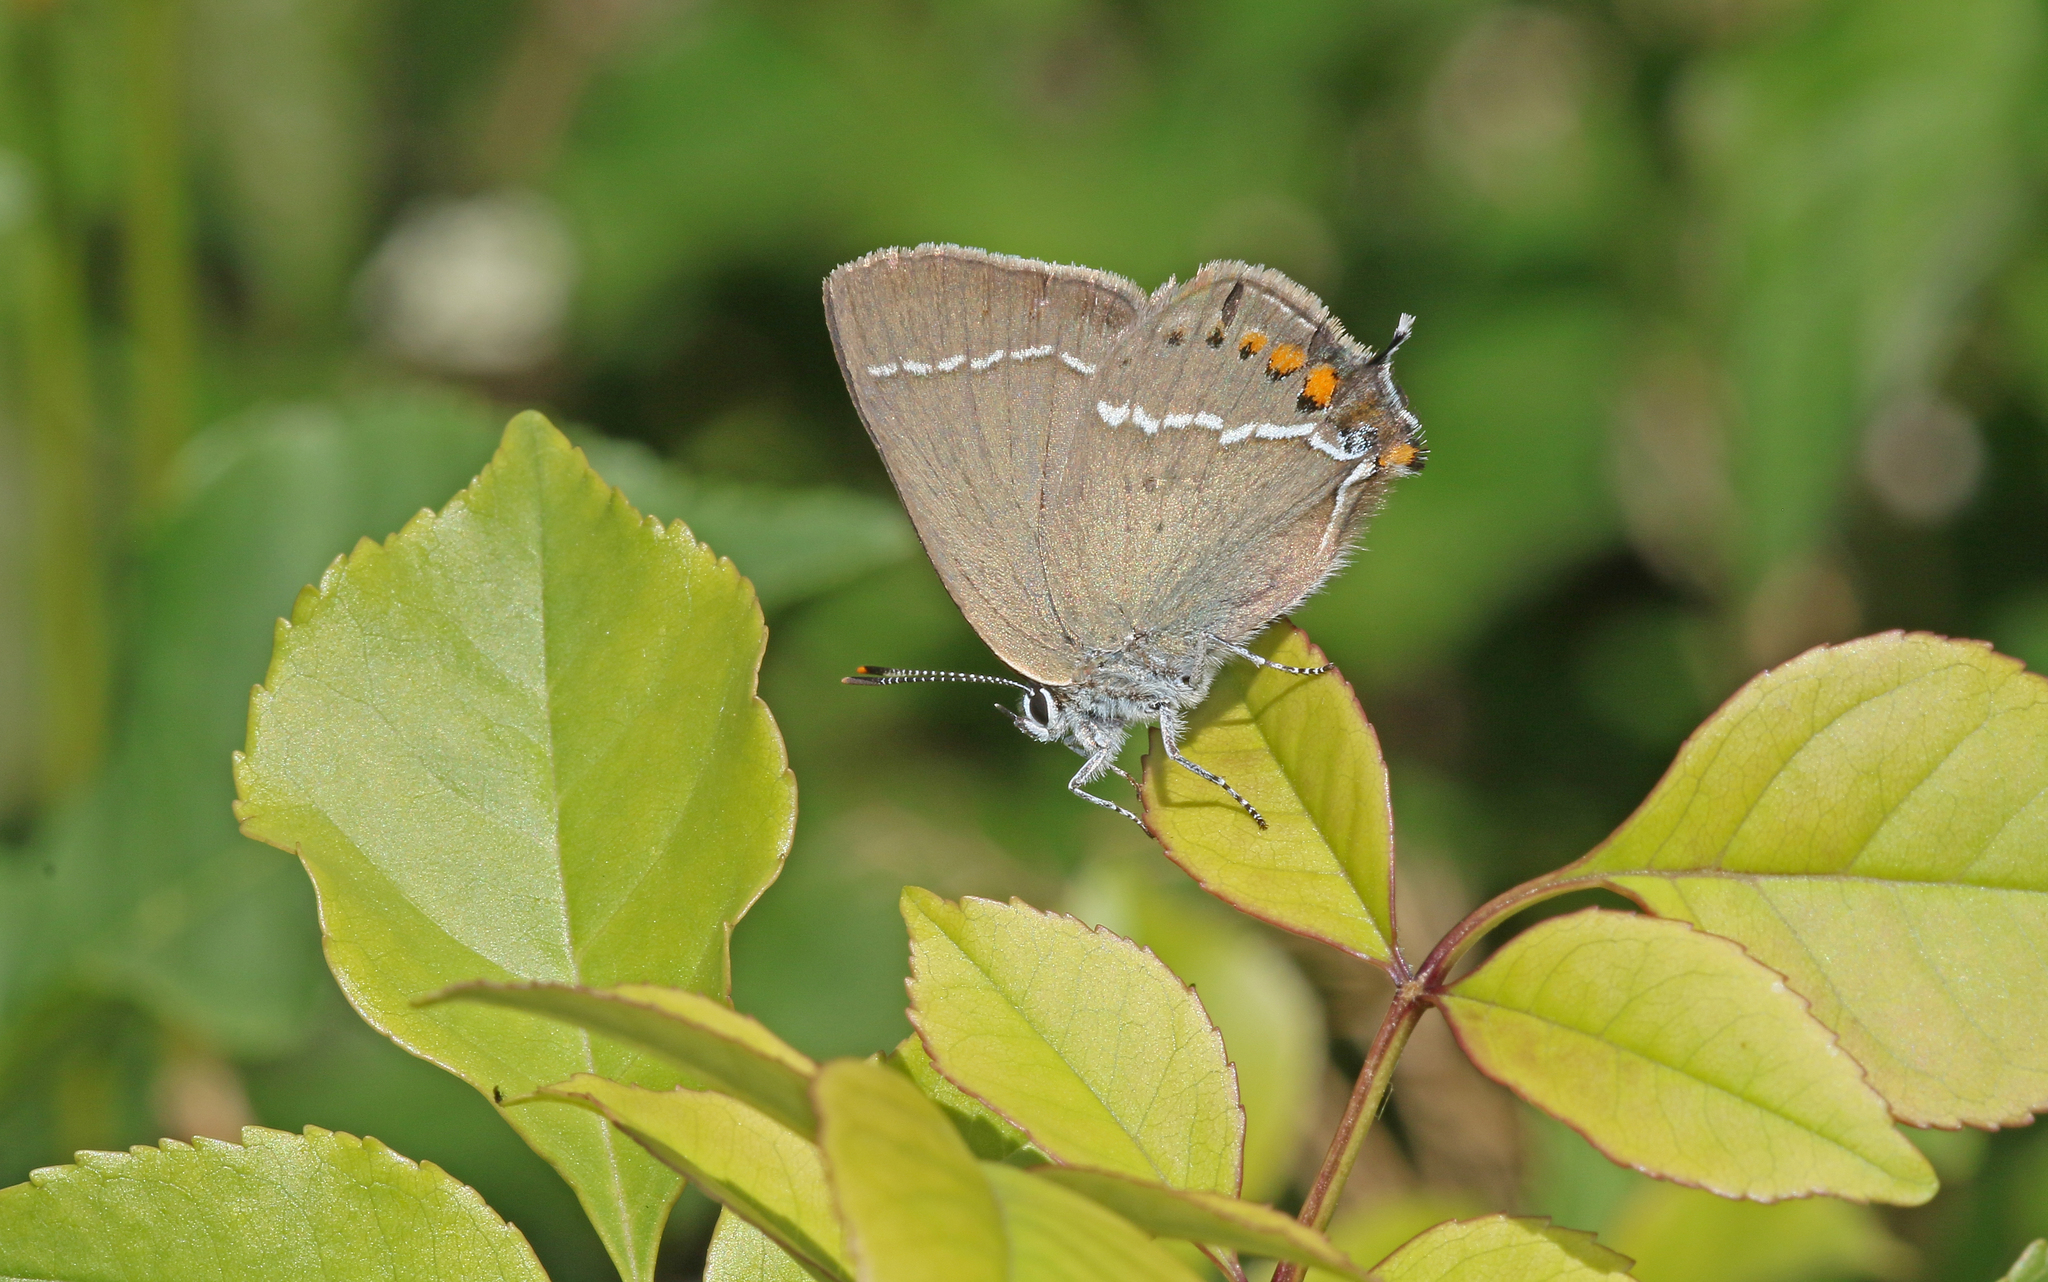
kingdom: Animalia
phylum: Arthropoda
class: Insecta
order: Lepidoptera
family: Lycaenidae
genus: Tuttiola
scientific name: Tuttiola spini
